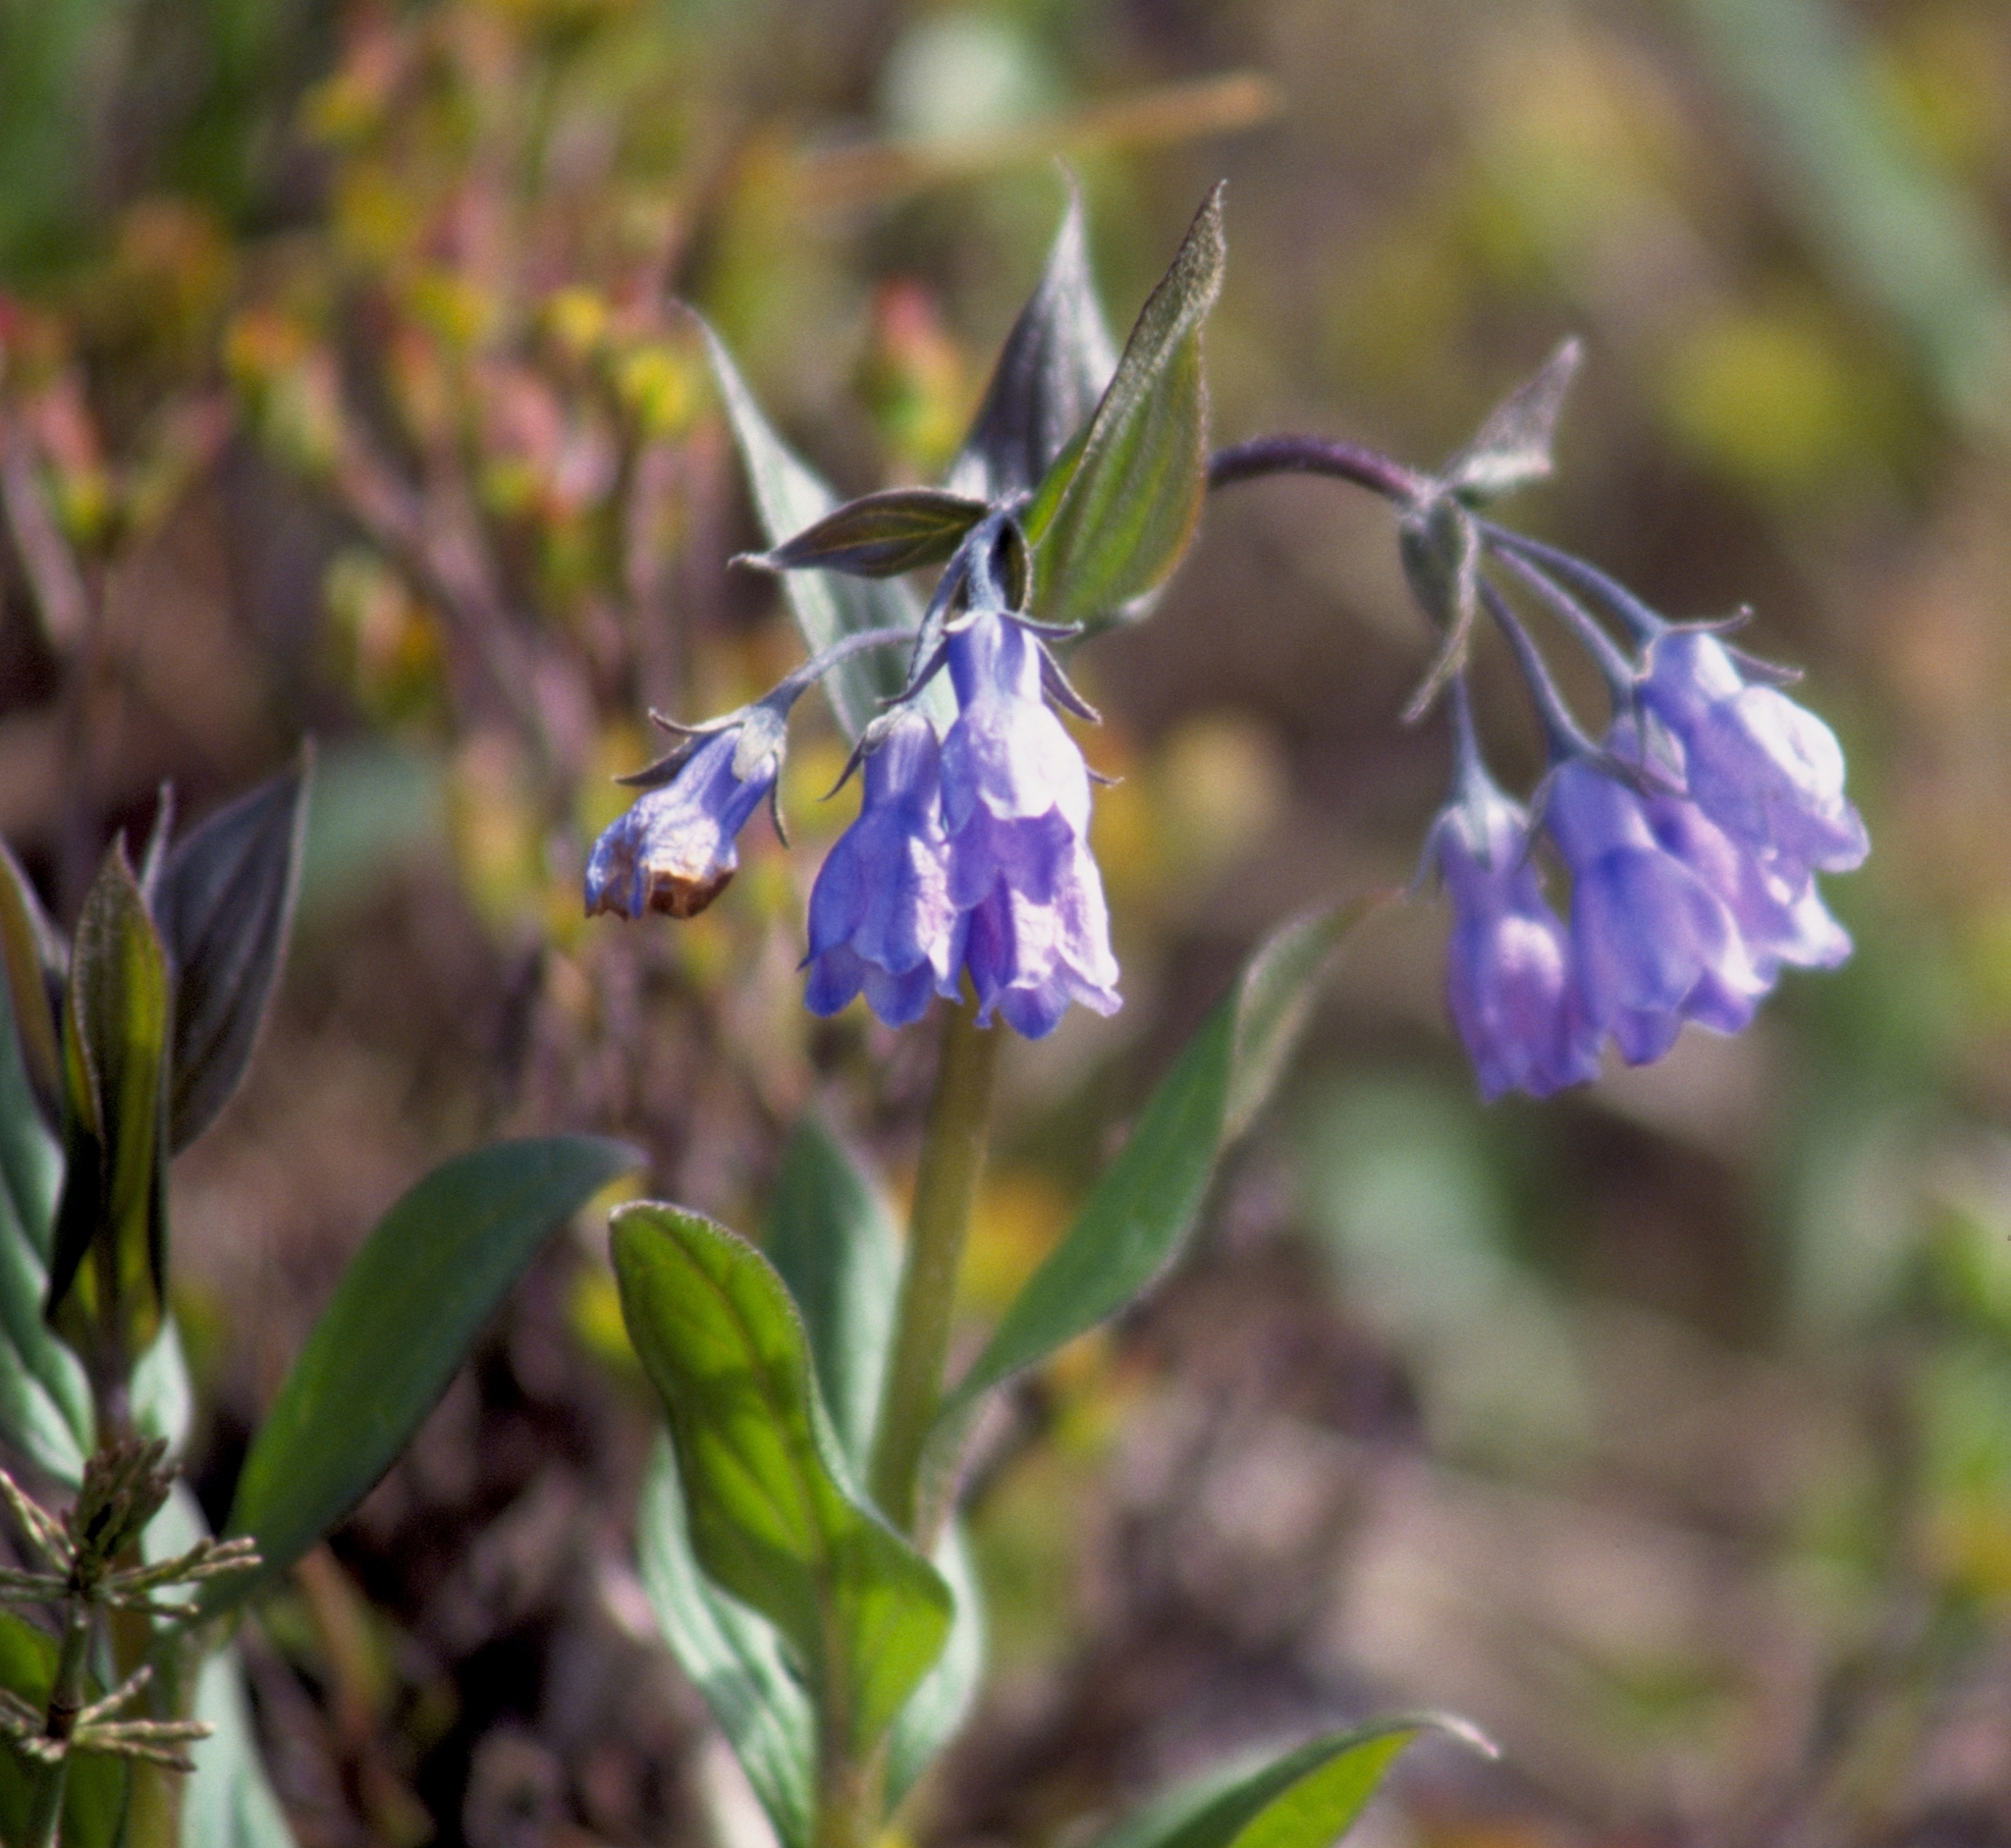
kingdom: Plantae
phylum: Tracheophyta
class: Magnoliopsida
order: Boraginales
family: Boraginaceae
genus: Mertensia
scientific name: Mertensia paniculata
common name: Panicled bluebells
